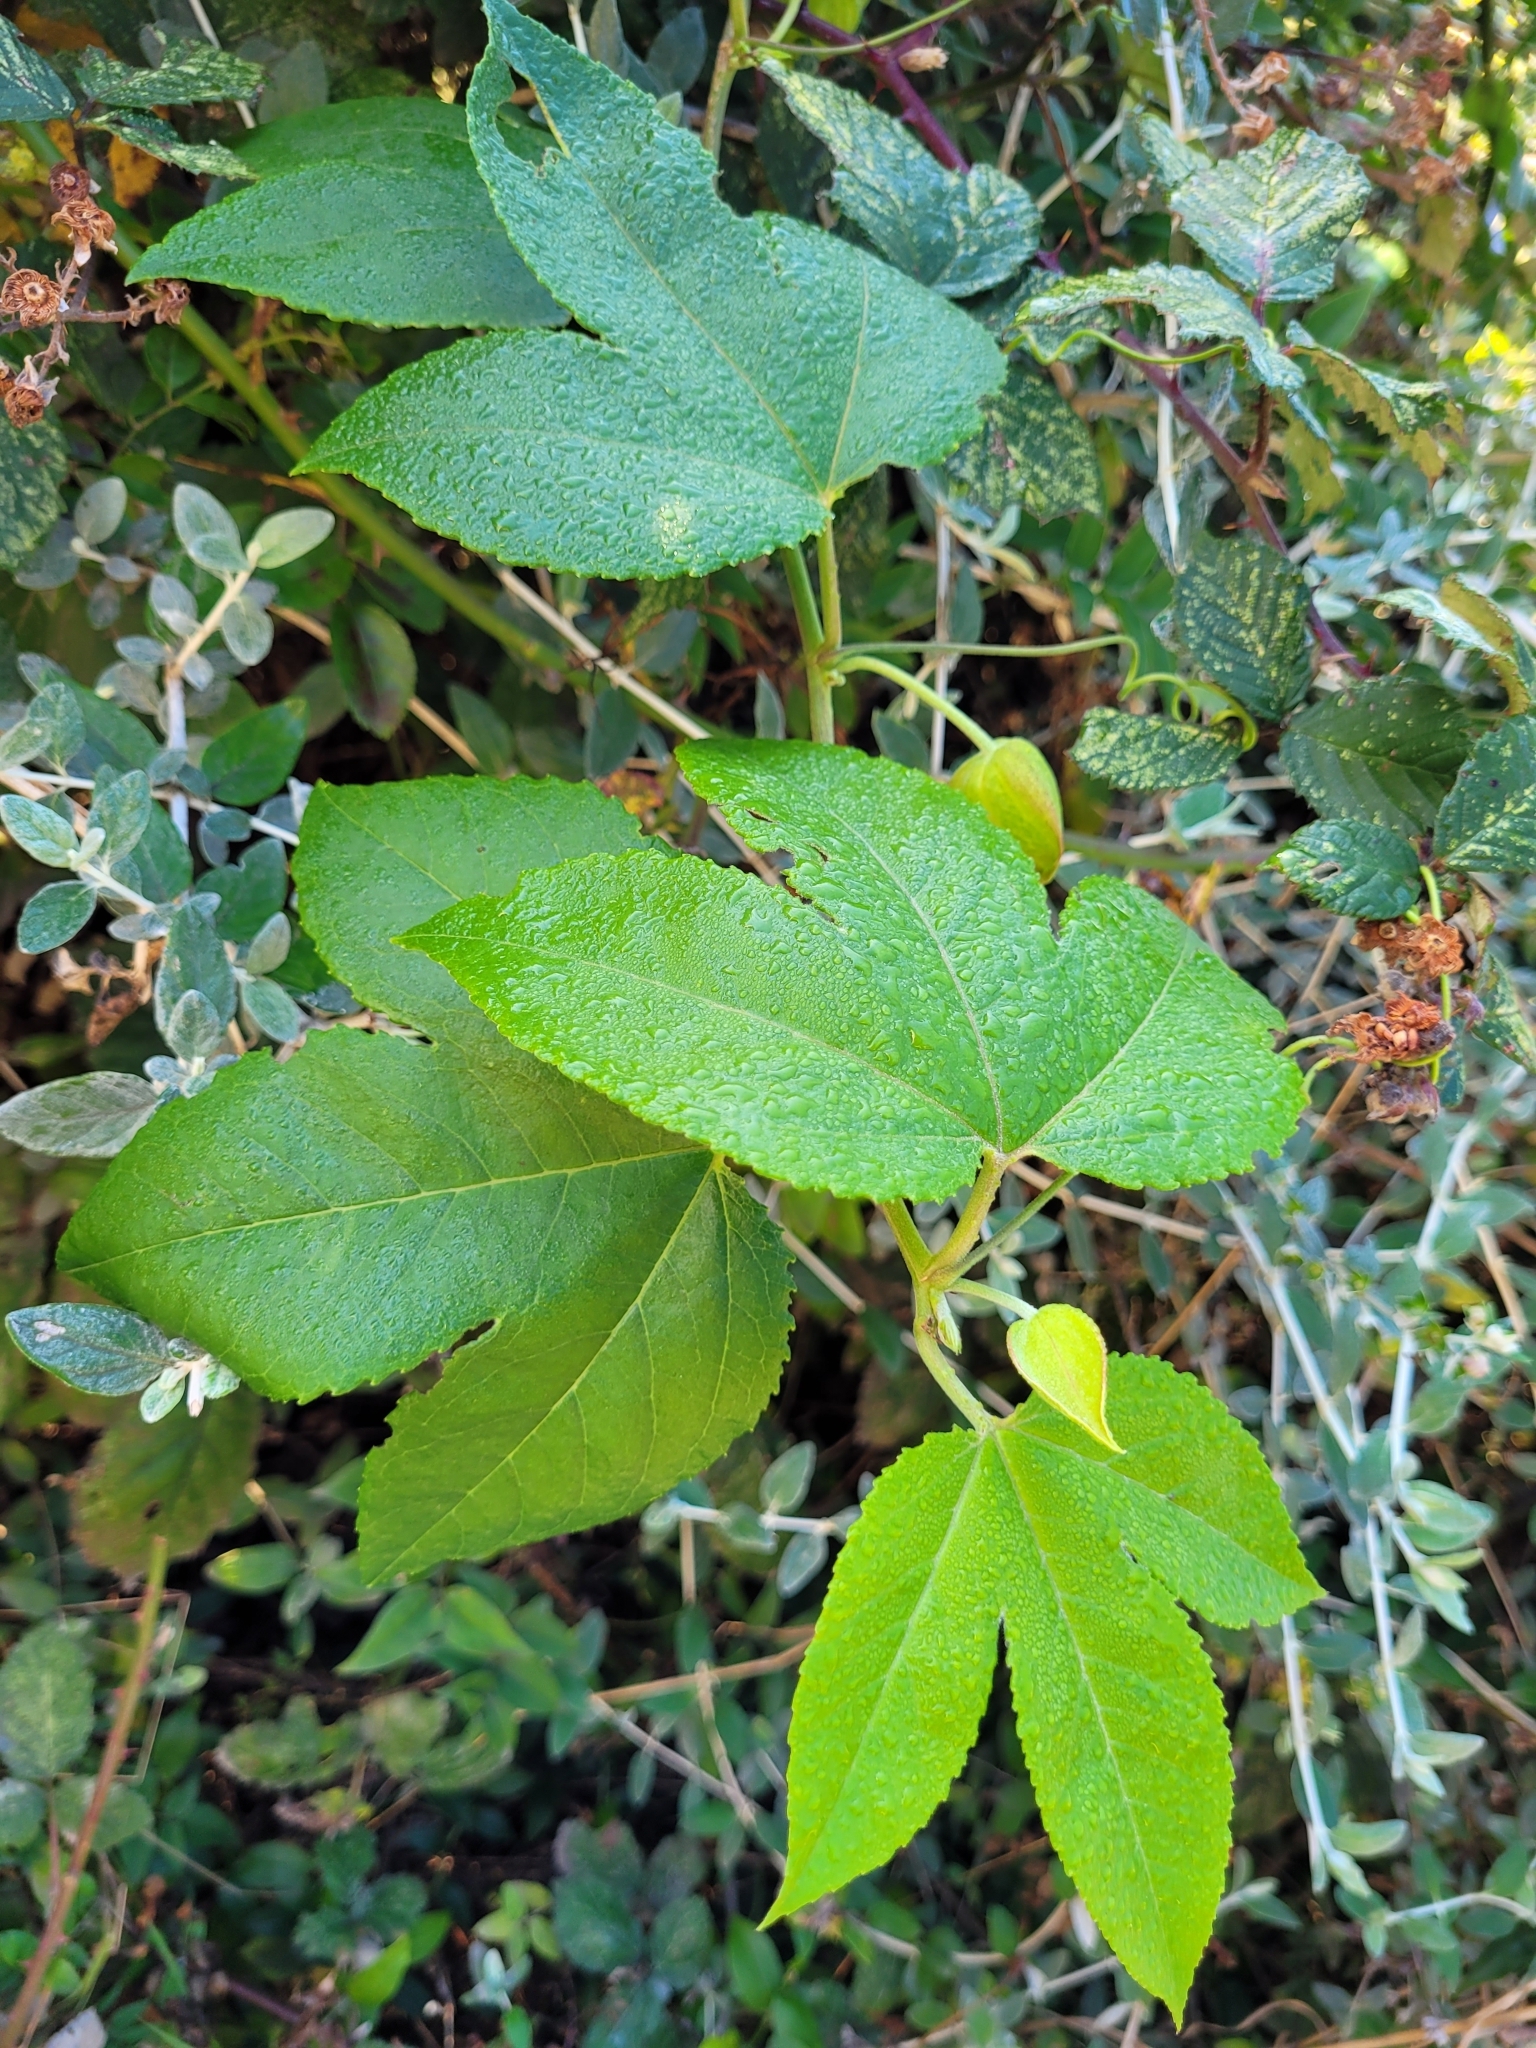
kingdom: Plantae
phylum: Tracheophyta
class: Magnoliopsida
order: Malpighiales
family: Passifloraceae
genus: Passiflora
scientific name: Passiflora tarminiana
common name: Banana poka
